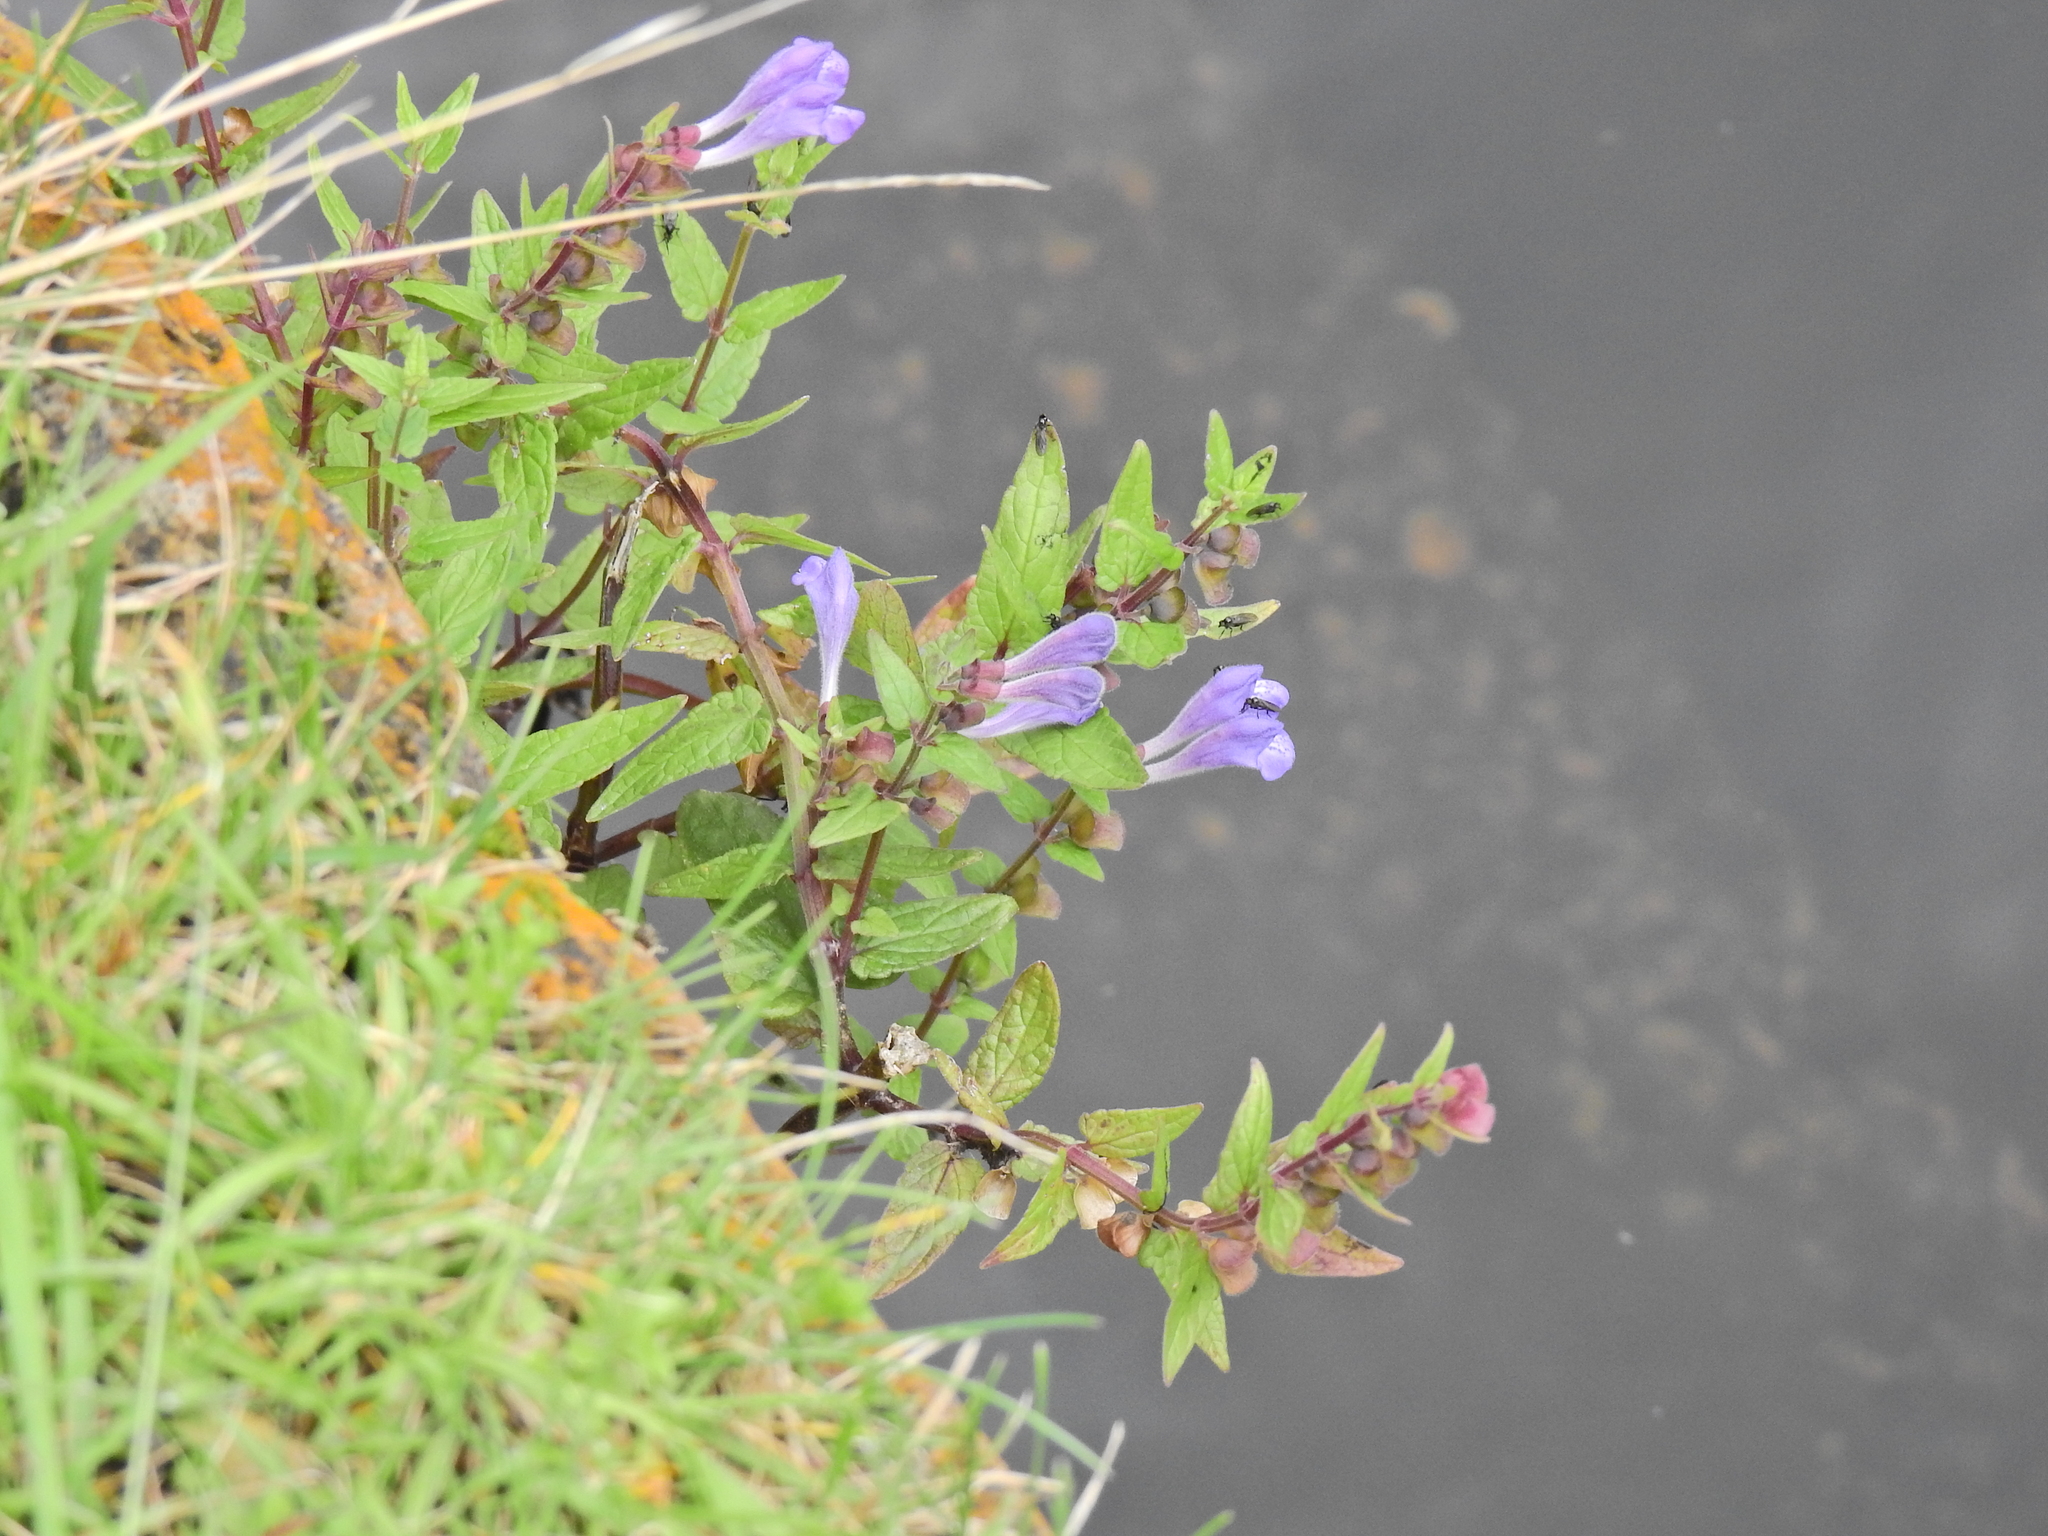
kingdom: Plantae
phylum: Tracheophyta
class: Magnoliopsida
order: Lamiales
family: Lamiaceae
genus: Scutellaria
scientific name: Scutellaria galericulata
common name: Skullcap
